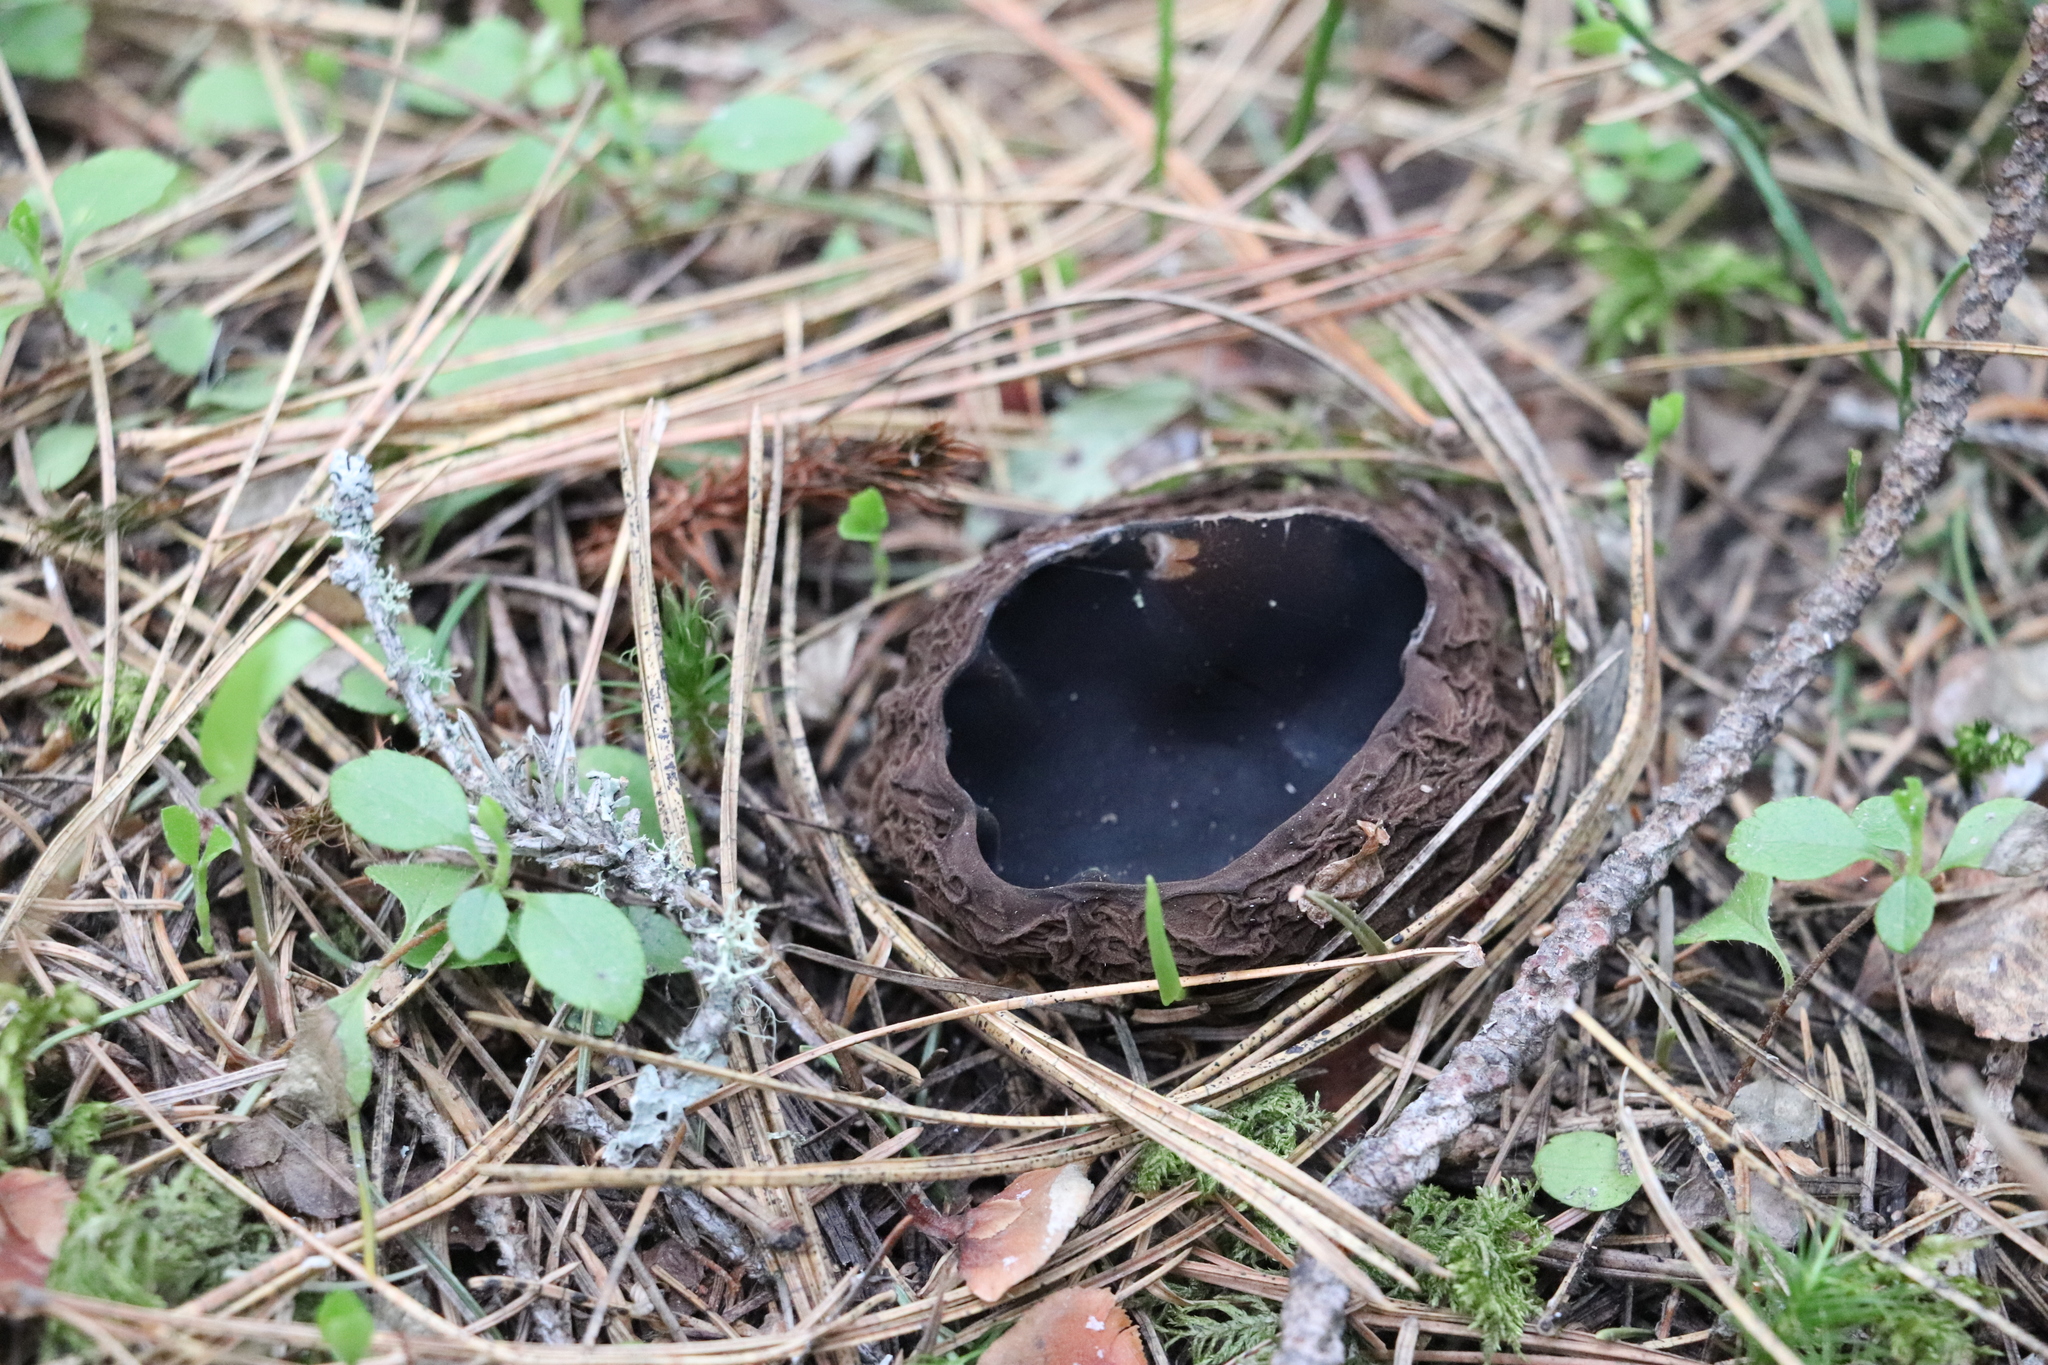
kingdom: Fungi
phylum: Ascomycota
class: Pezizomycetes
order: Pezizales
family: Sarcosomataceae
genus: Sarcosoma
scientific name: Sarcosoma globosum
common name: Charred-pancake cup
